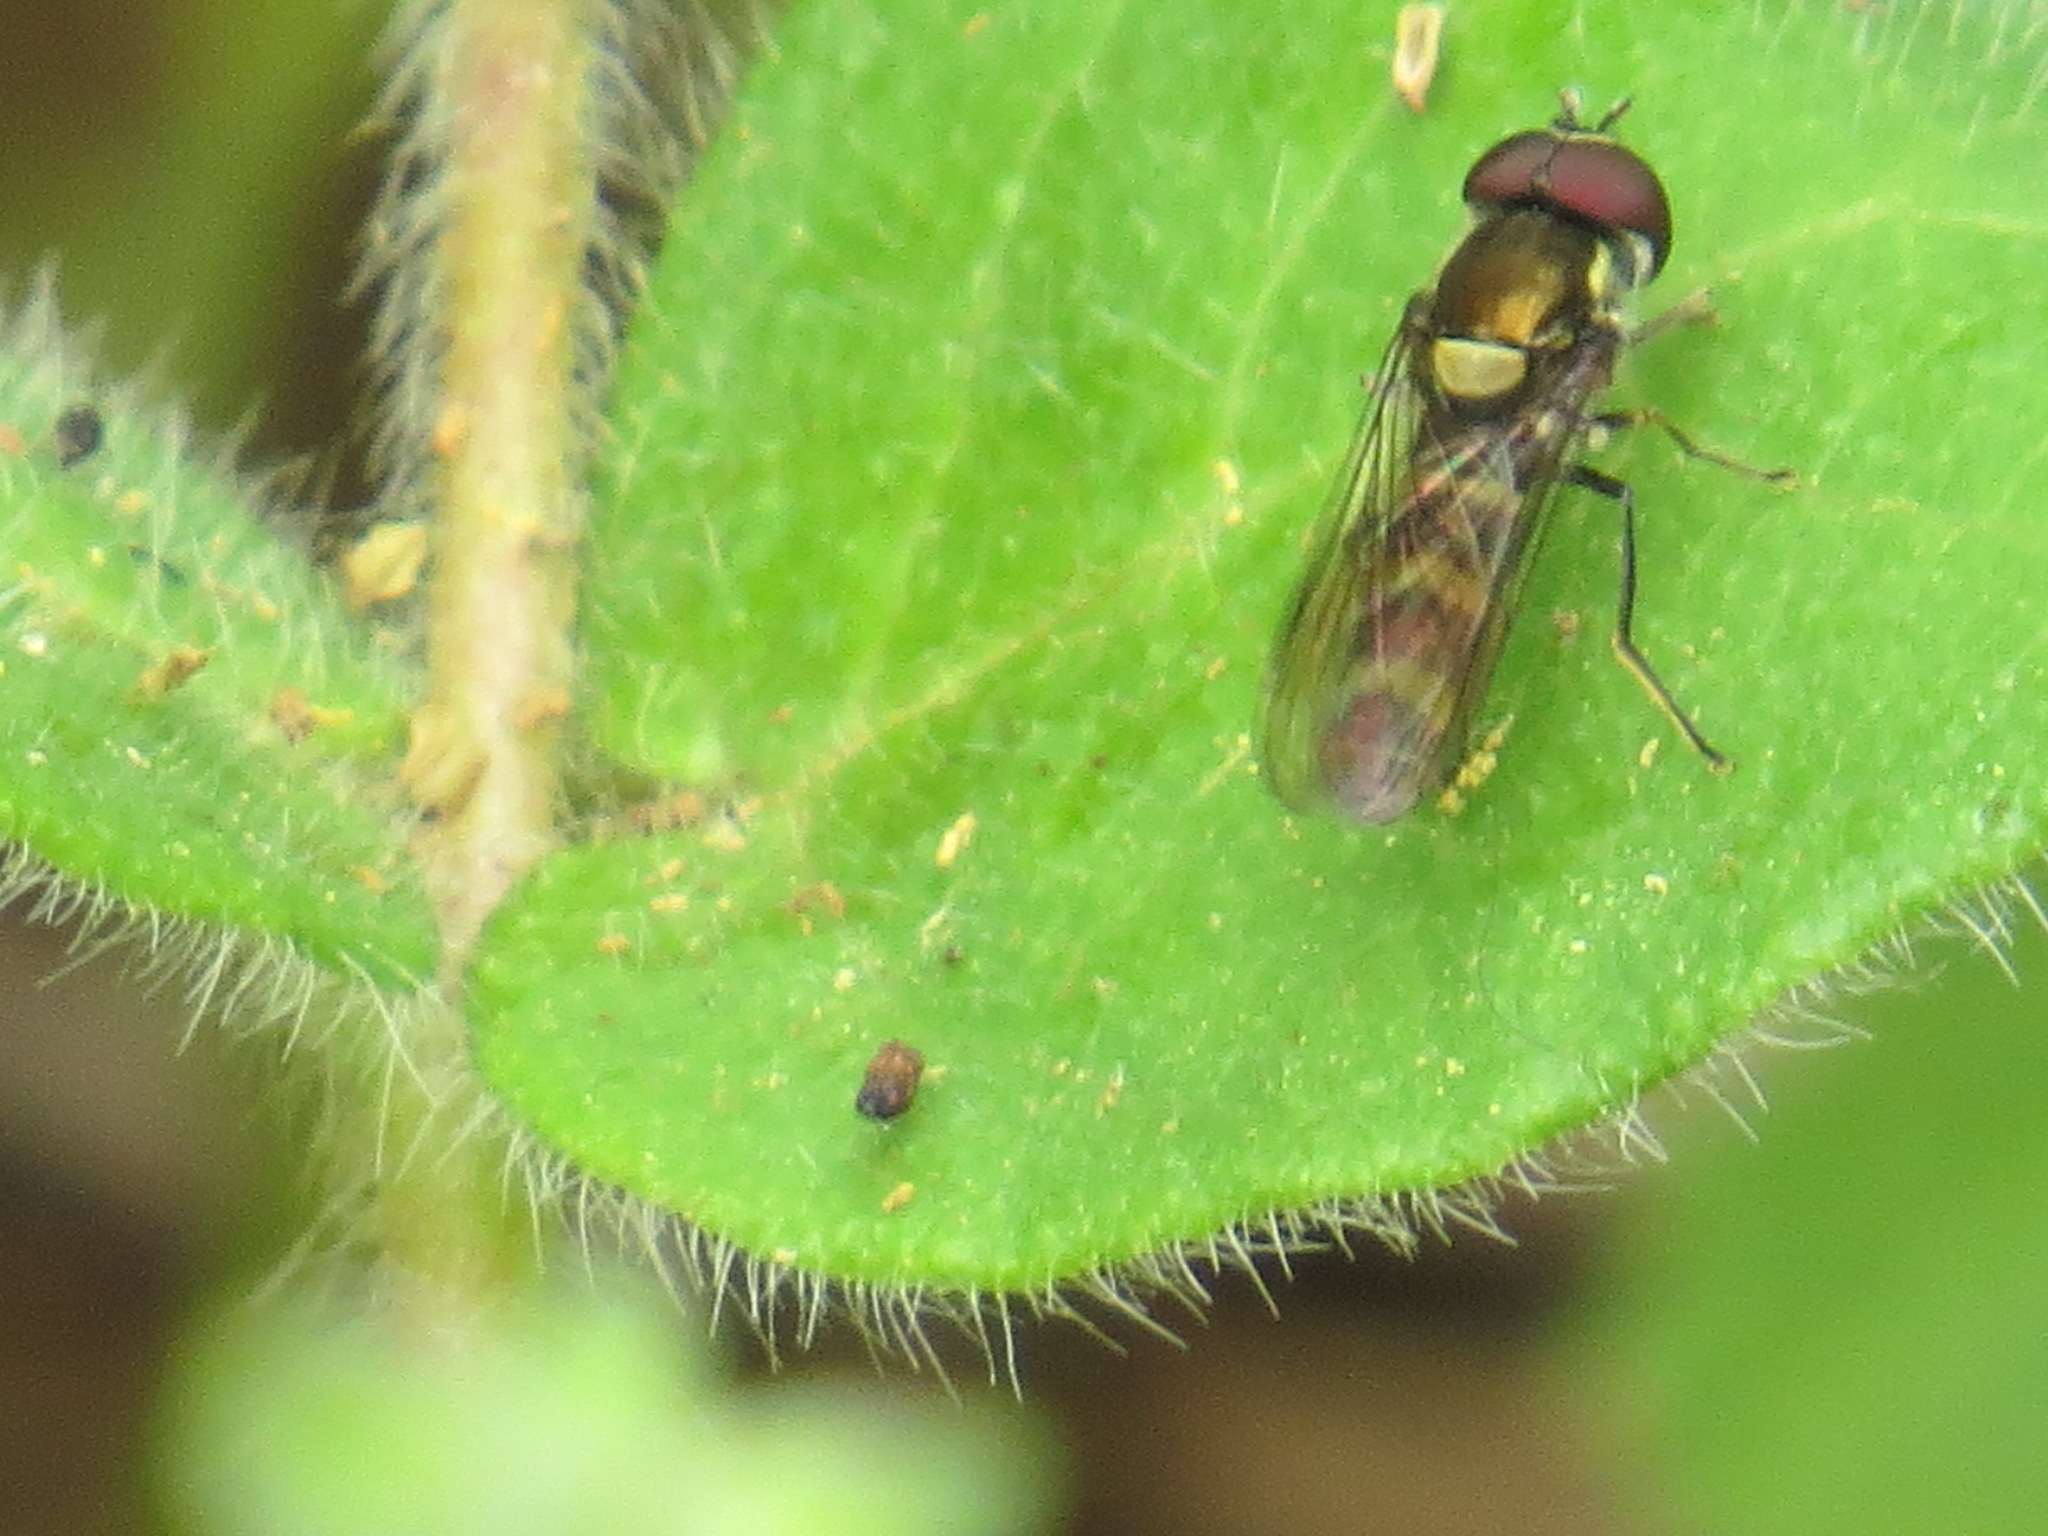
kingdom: Animalia
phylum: Arthropoda
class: Insecta
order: Diptera
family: Syrphidae
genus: Fazia
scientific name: Fazia micrura
